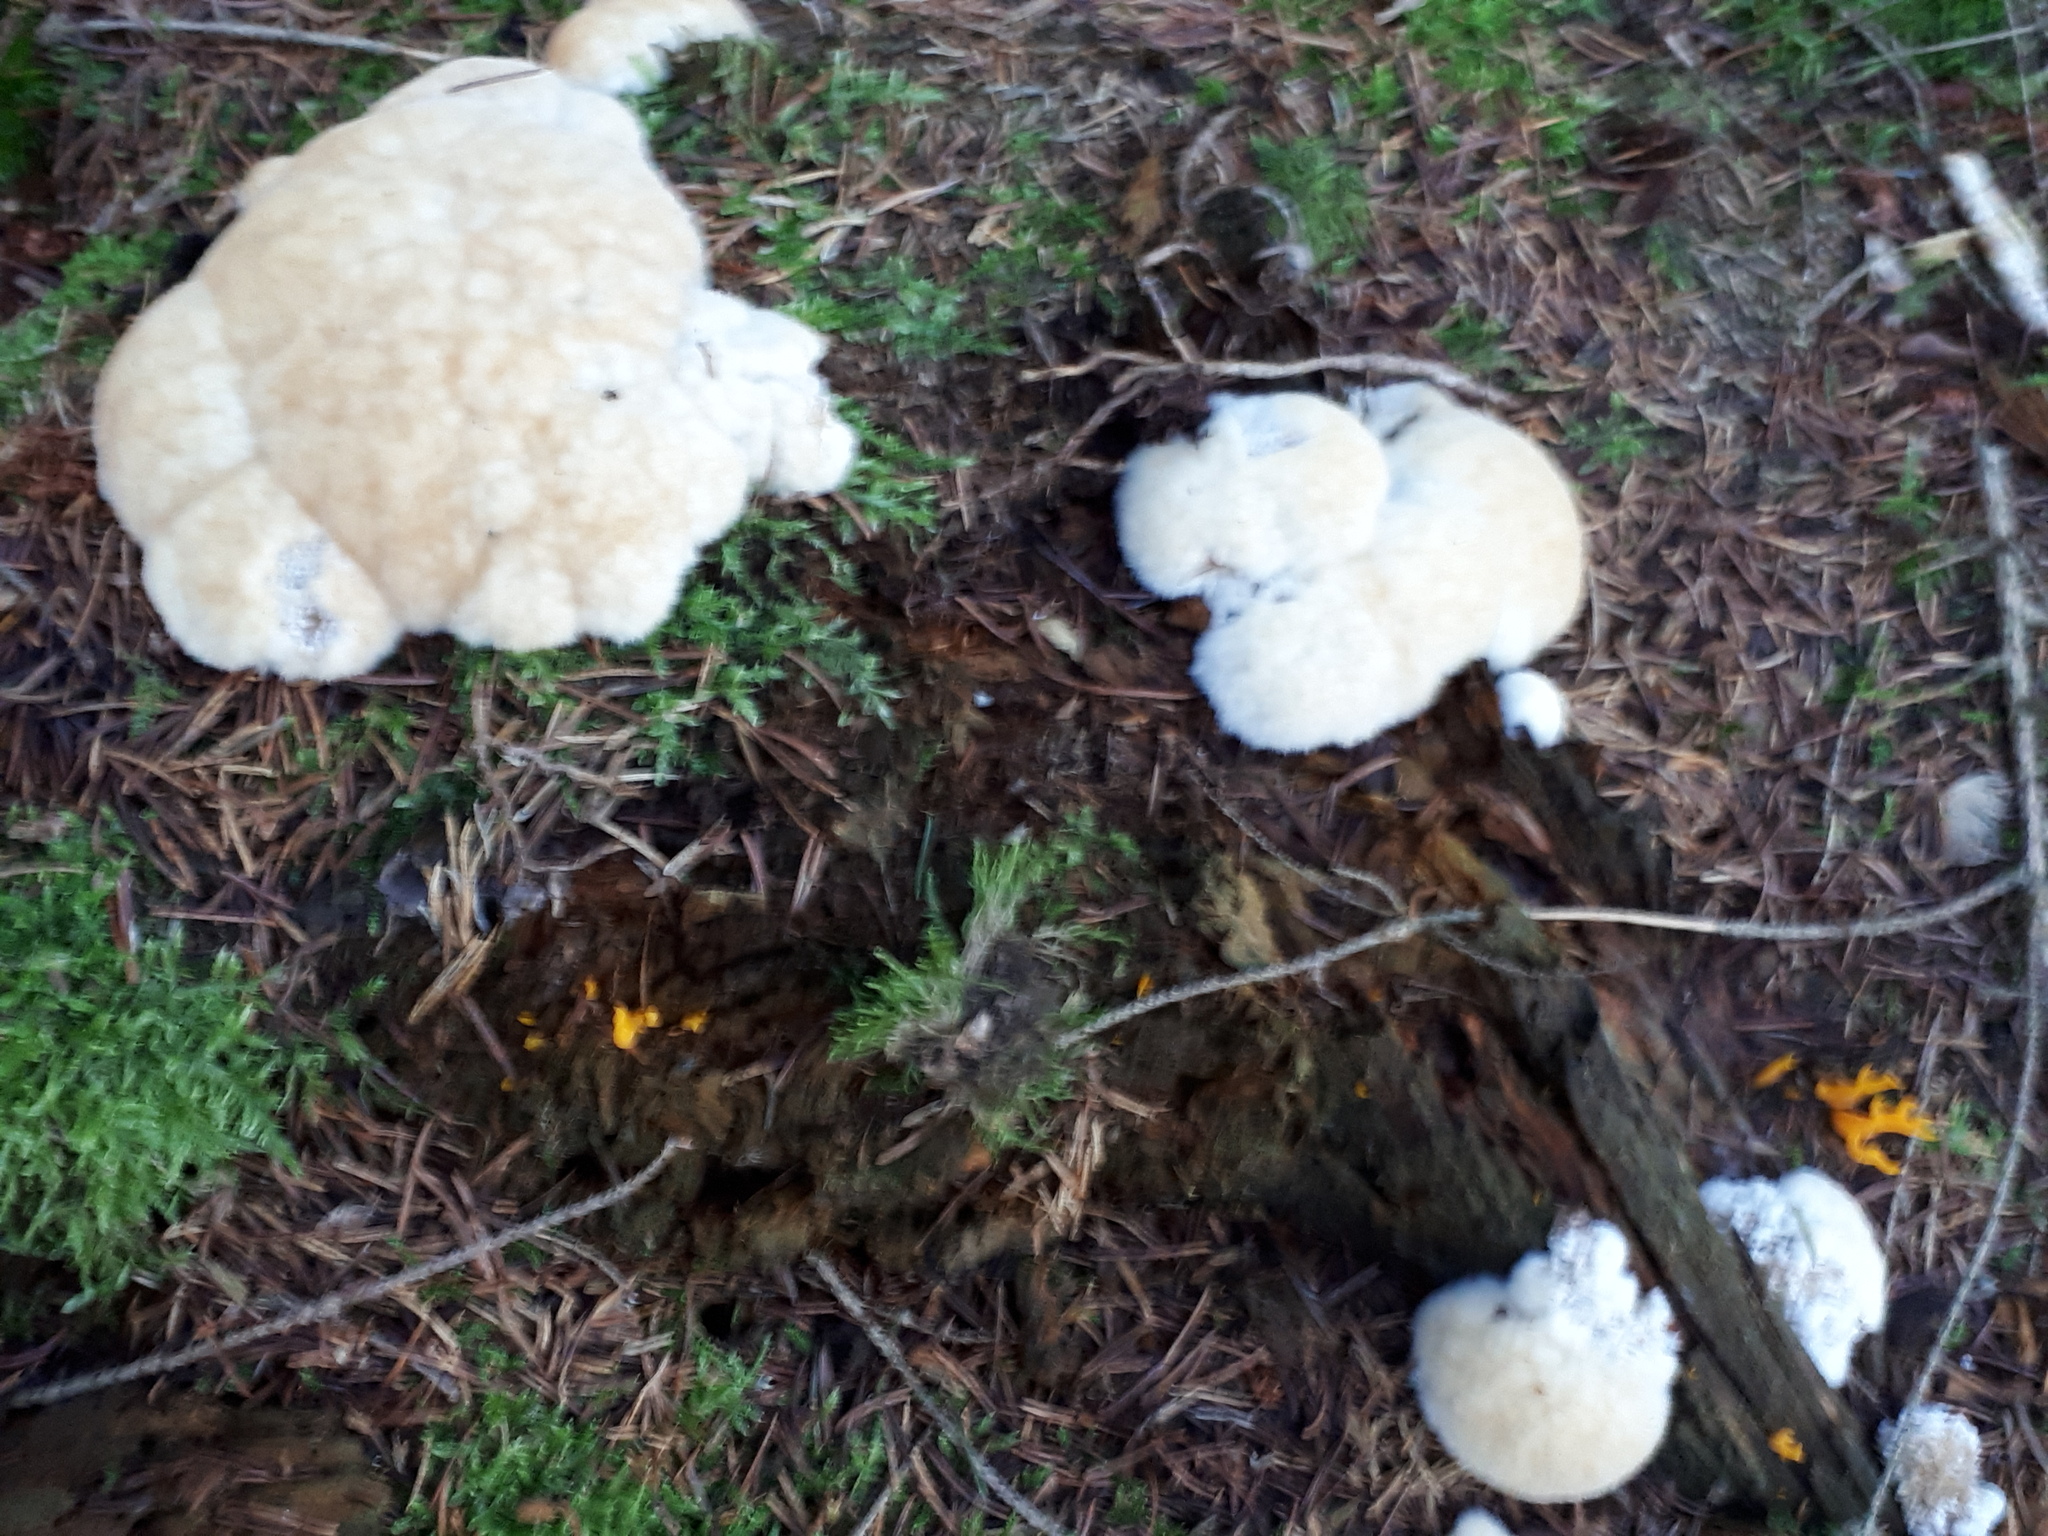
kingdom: Fungi
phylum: Basidiomycota
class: Agaricomycetes
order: Polyporales
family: Dacryobolaceae
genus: Postia
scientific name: Postia ptychogaster
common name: Powderpuff bracket
